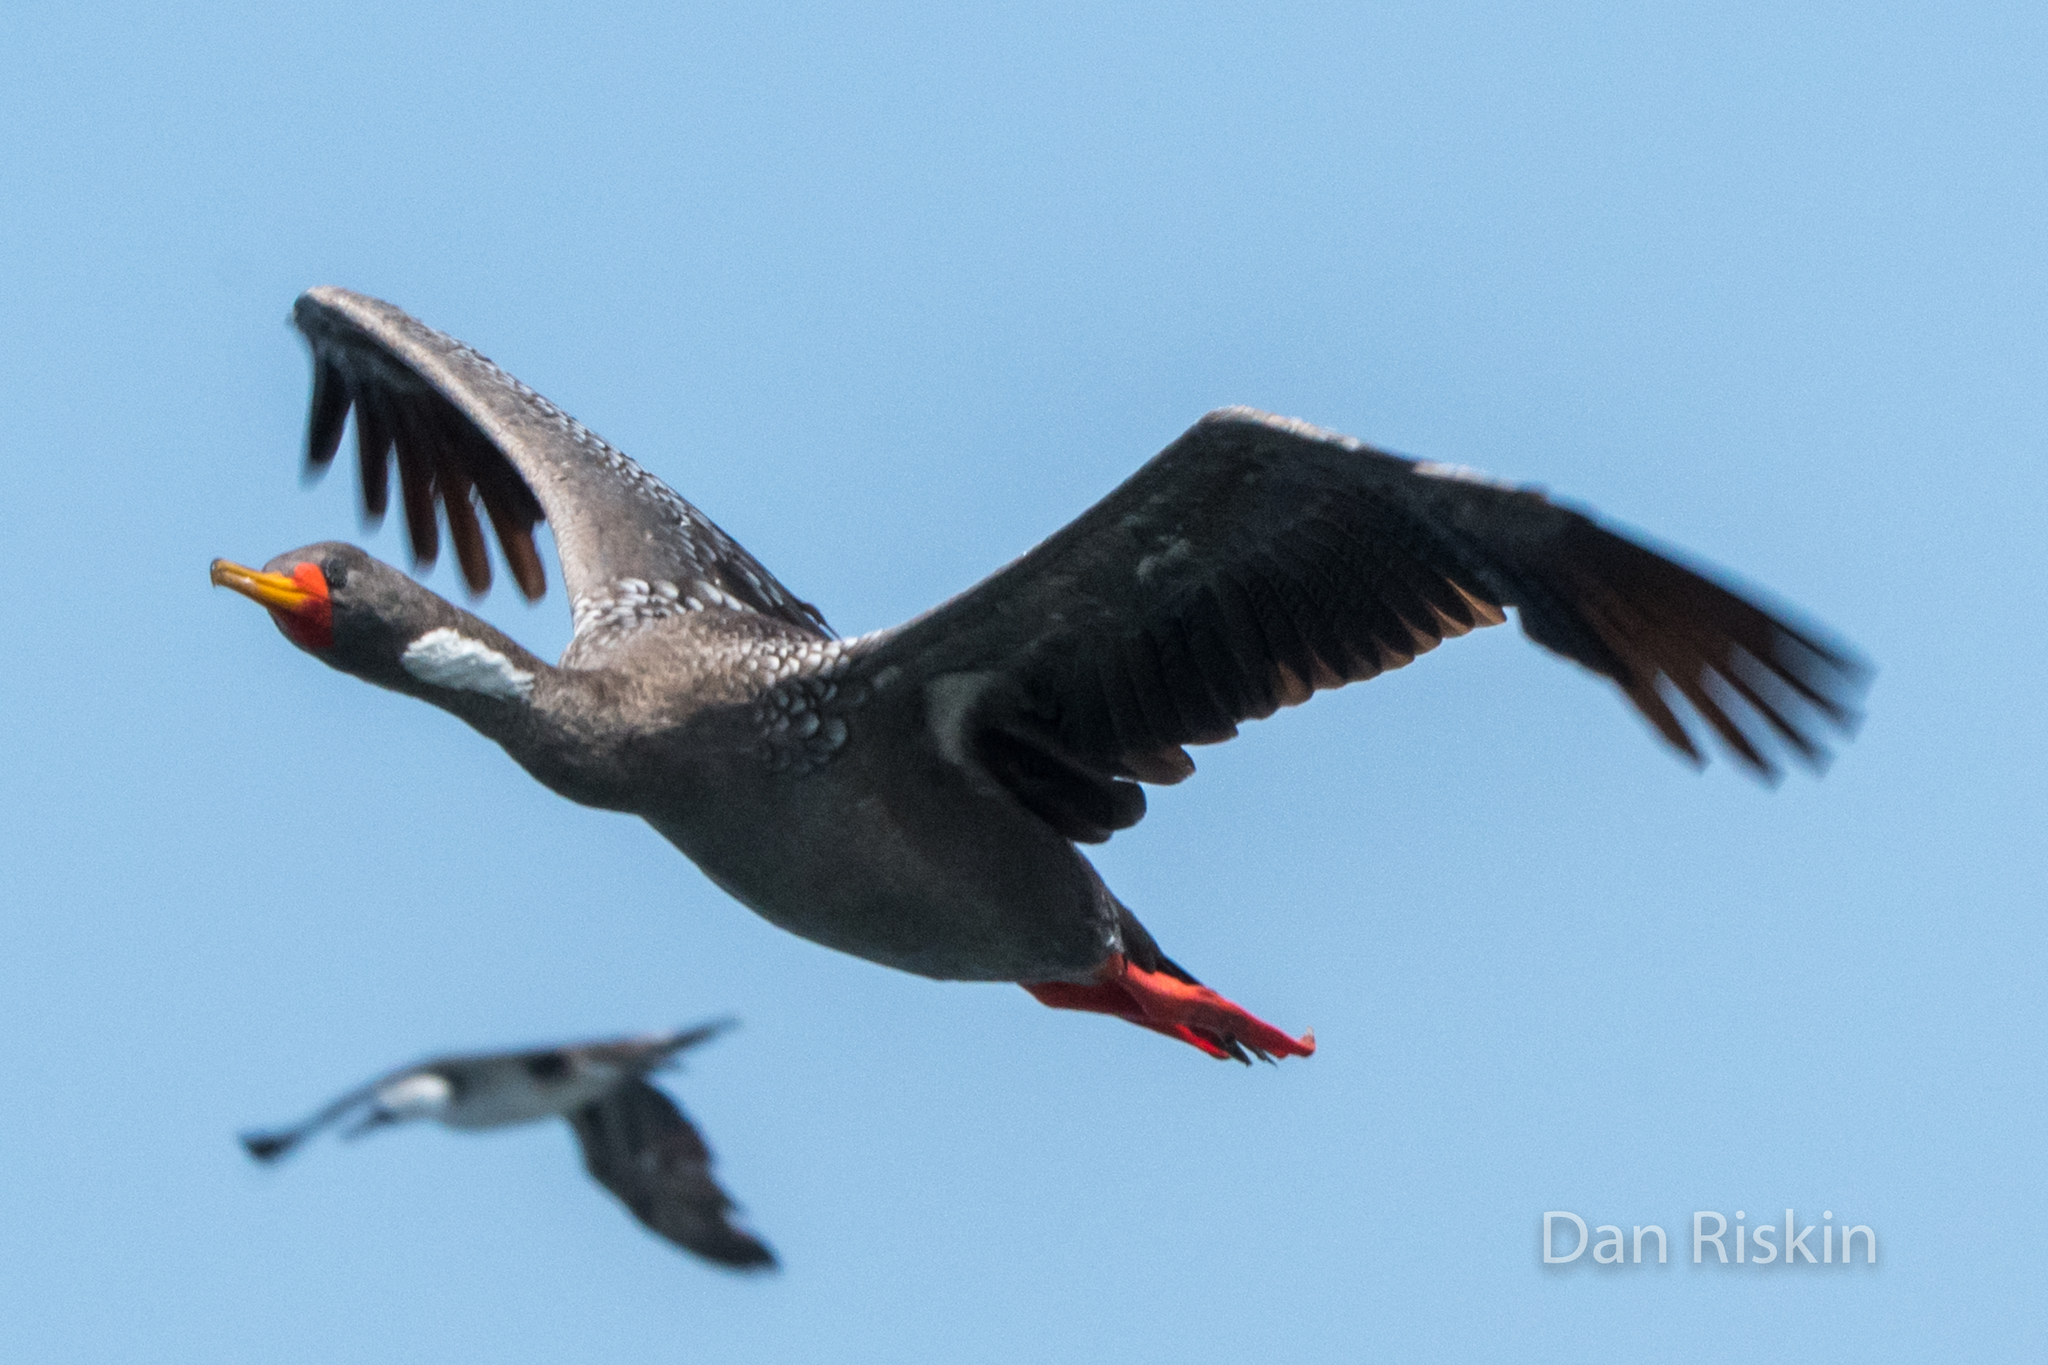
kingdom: Animalia
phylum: Chordata
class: Aves
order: Suliformes
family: Phalacrocoracidae
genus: Phalacrocorax
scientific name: Phalacrocorax gaimardi
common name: Red-legged cormorant
